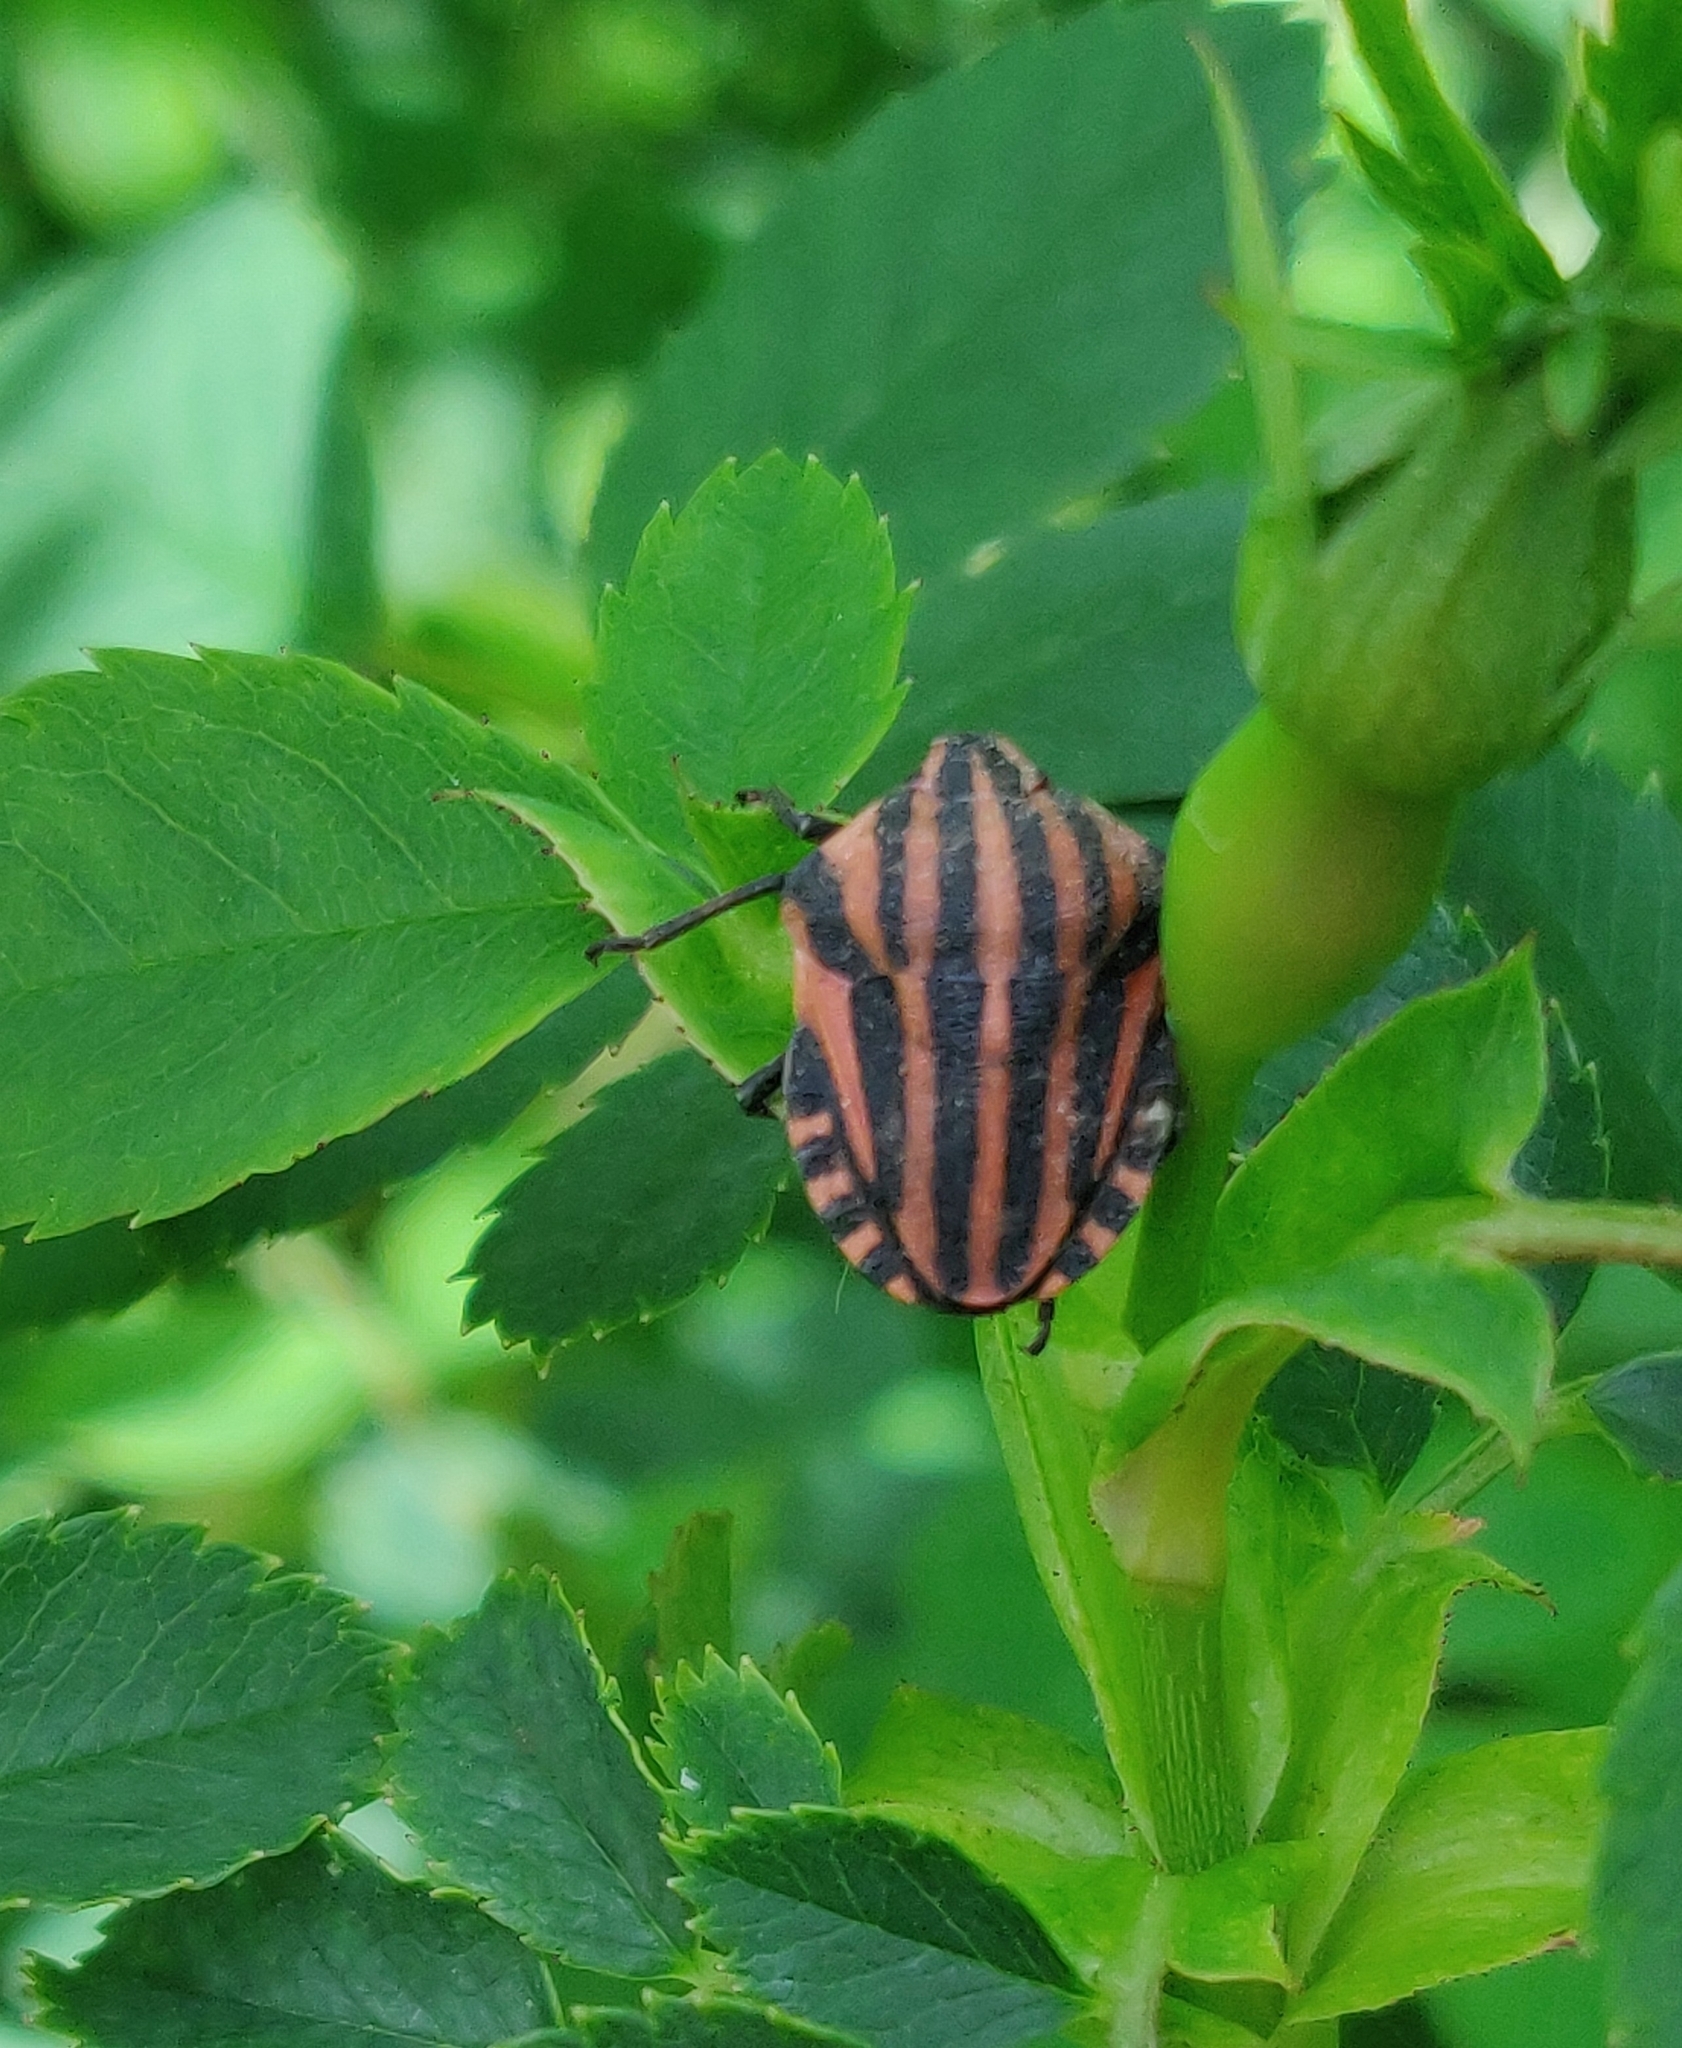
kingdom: Animalia
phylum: Arthropoda
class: Insecta
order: Hemiptera
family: Pentatomidae
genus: Graphosoma
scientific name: Graphosoma italicum
